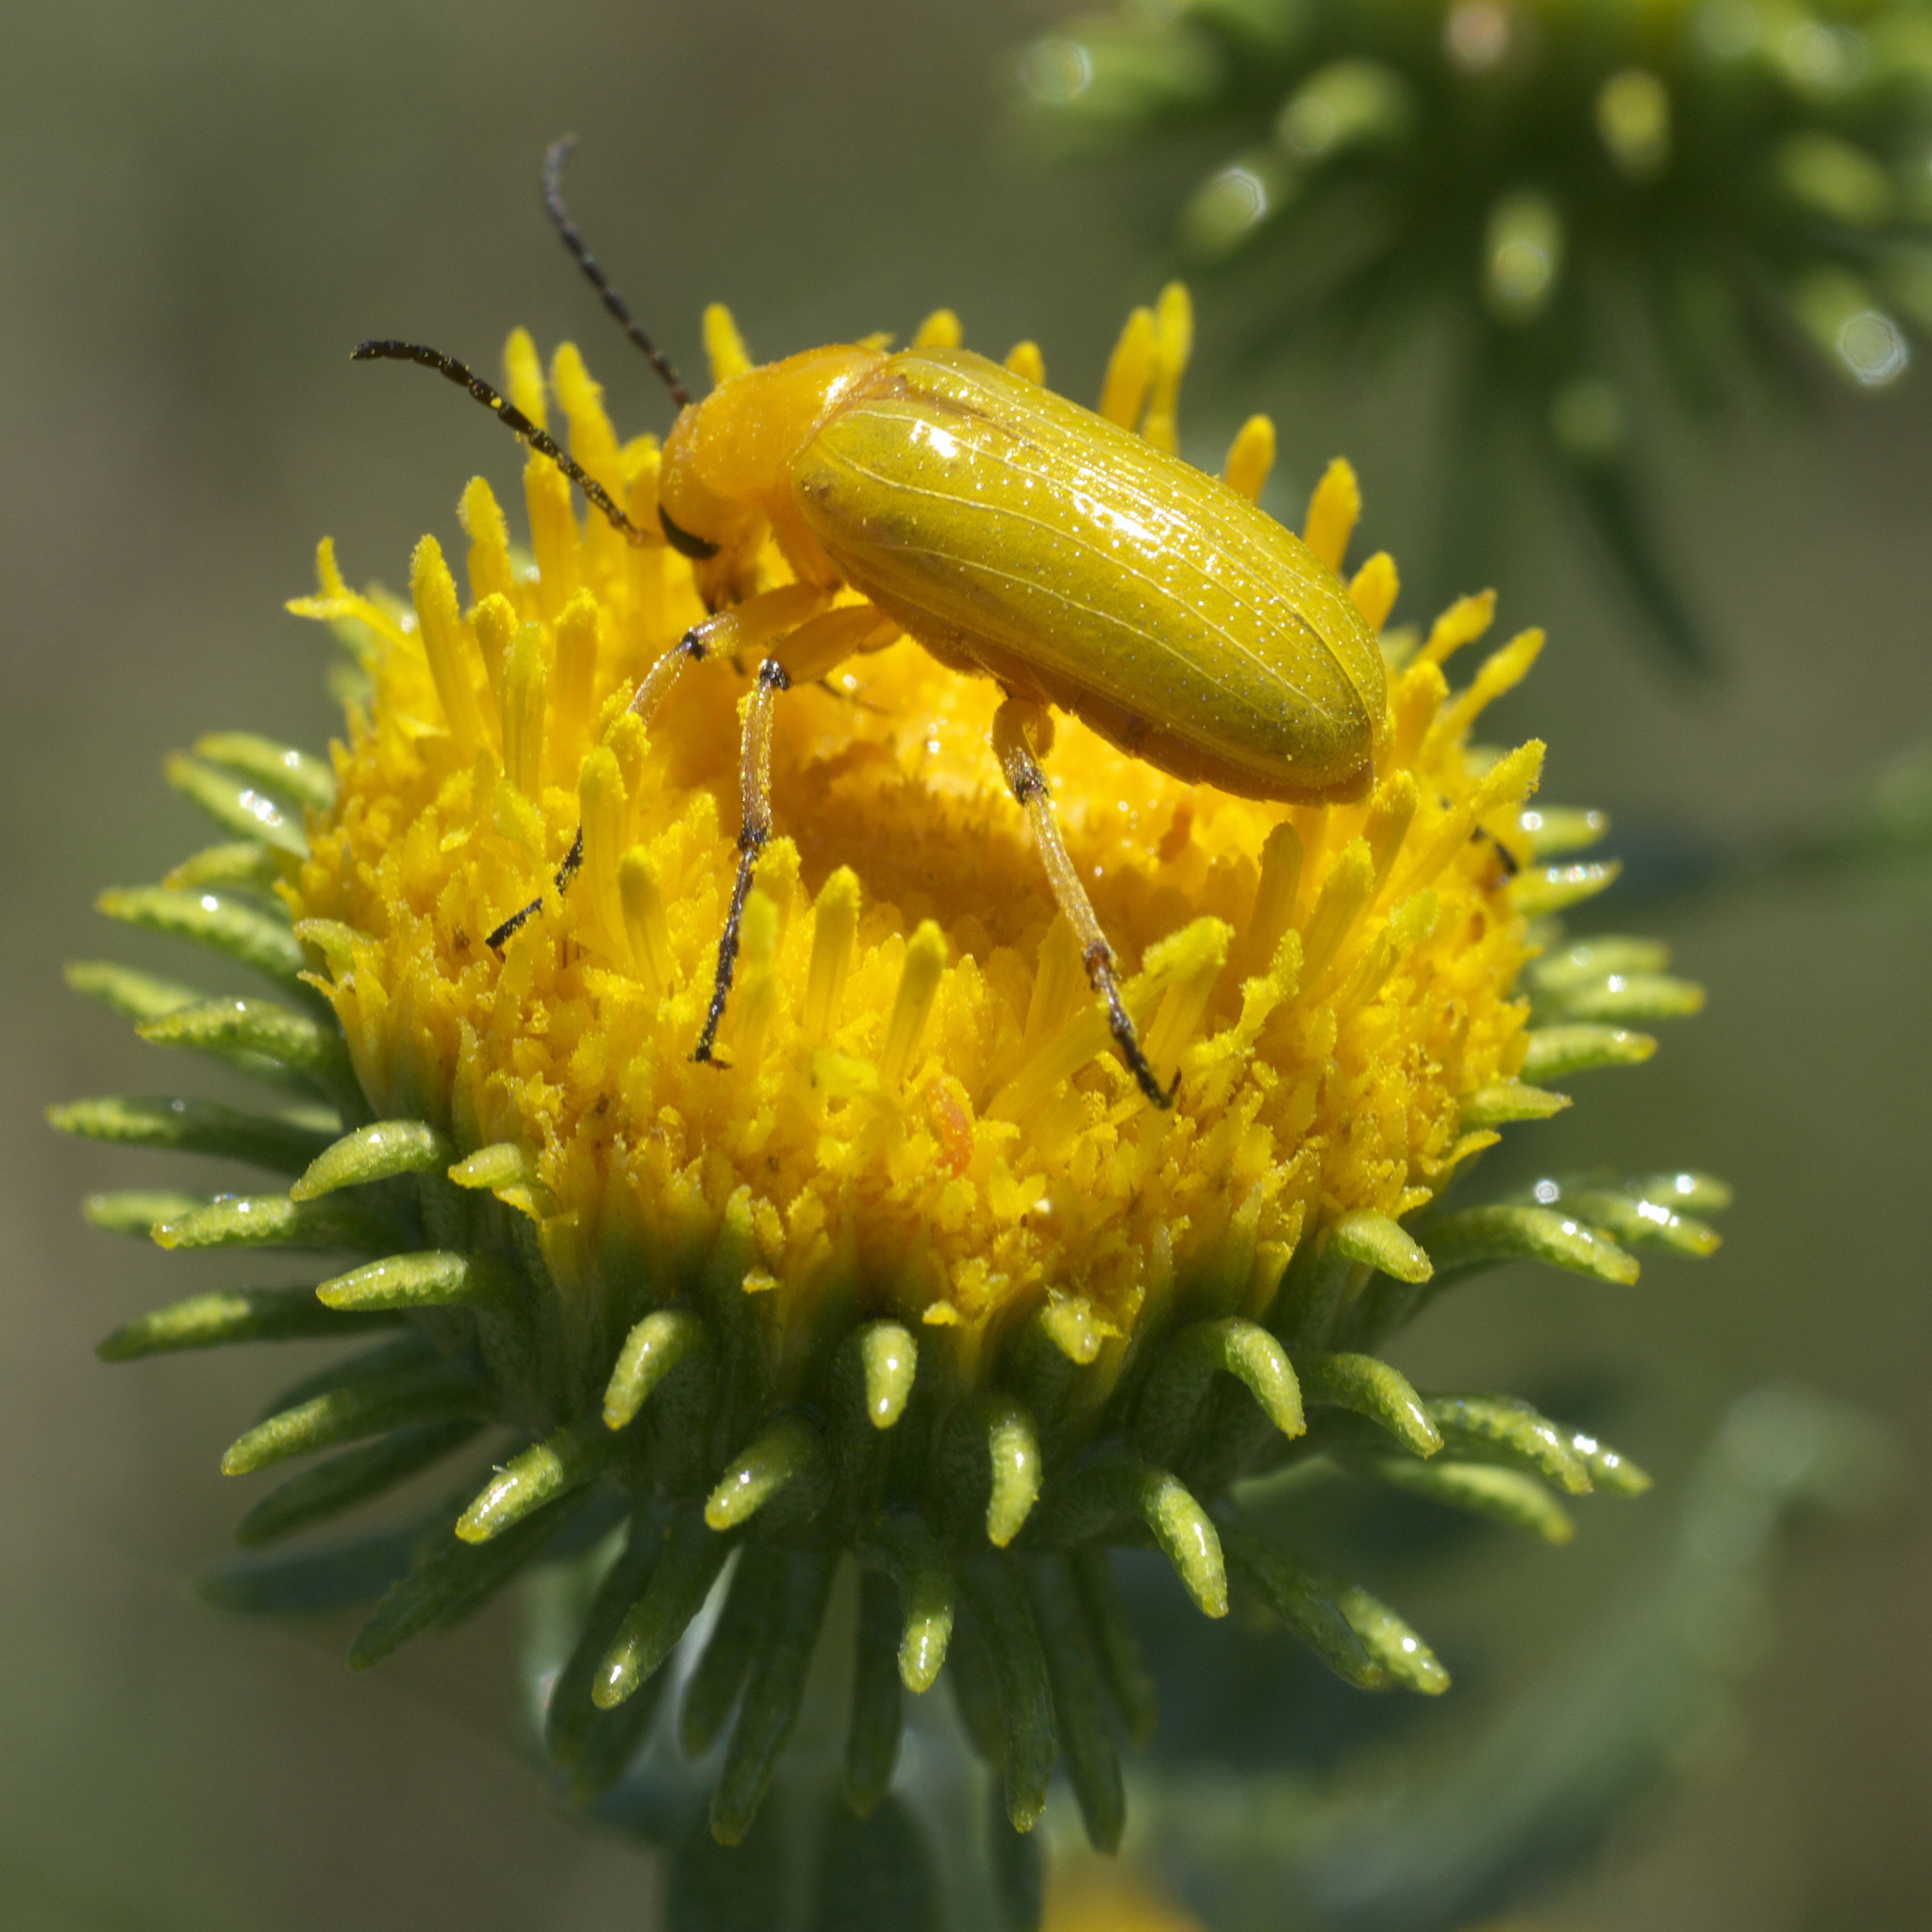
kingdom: Animalia
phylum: Arthropoda
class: Insecta
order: Coleoptera
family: Meloidae
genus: Zonitis
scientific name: Zonitis sayi
